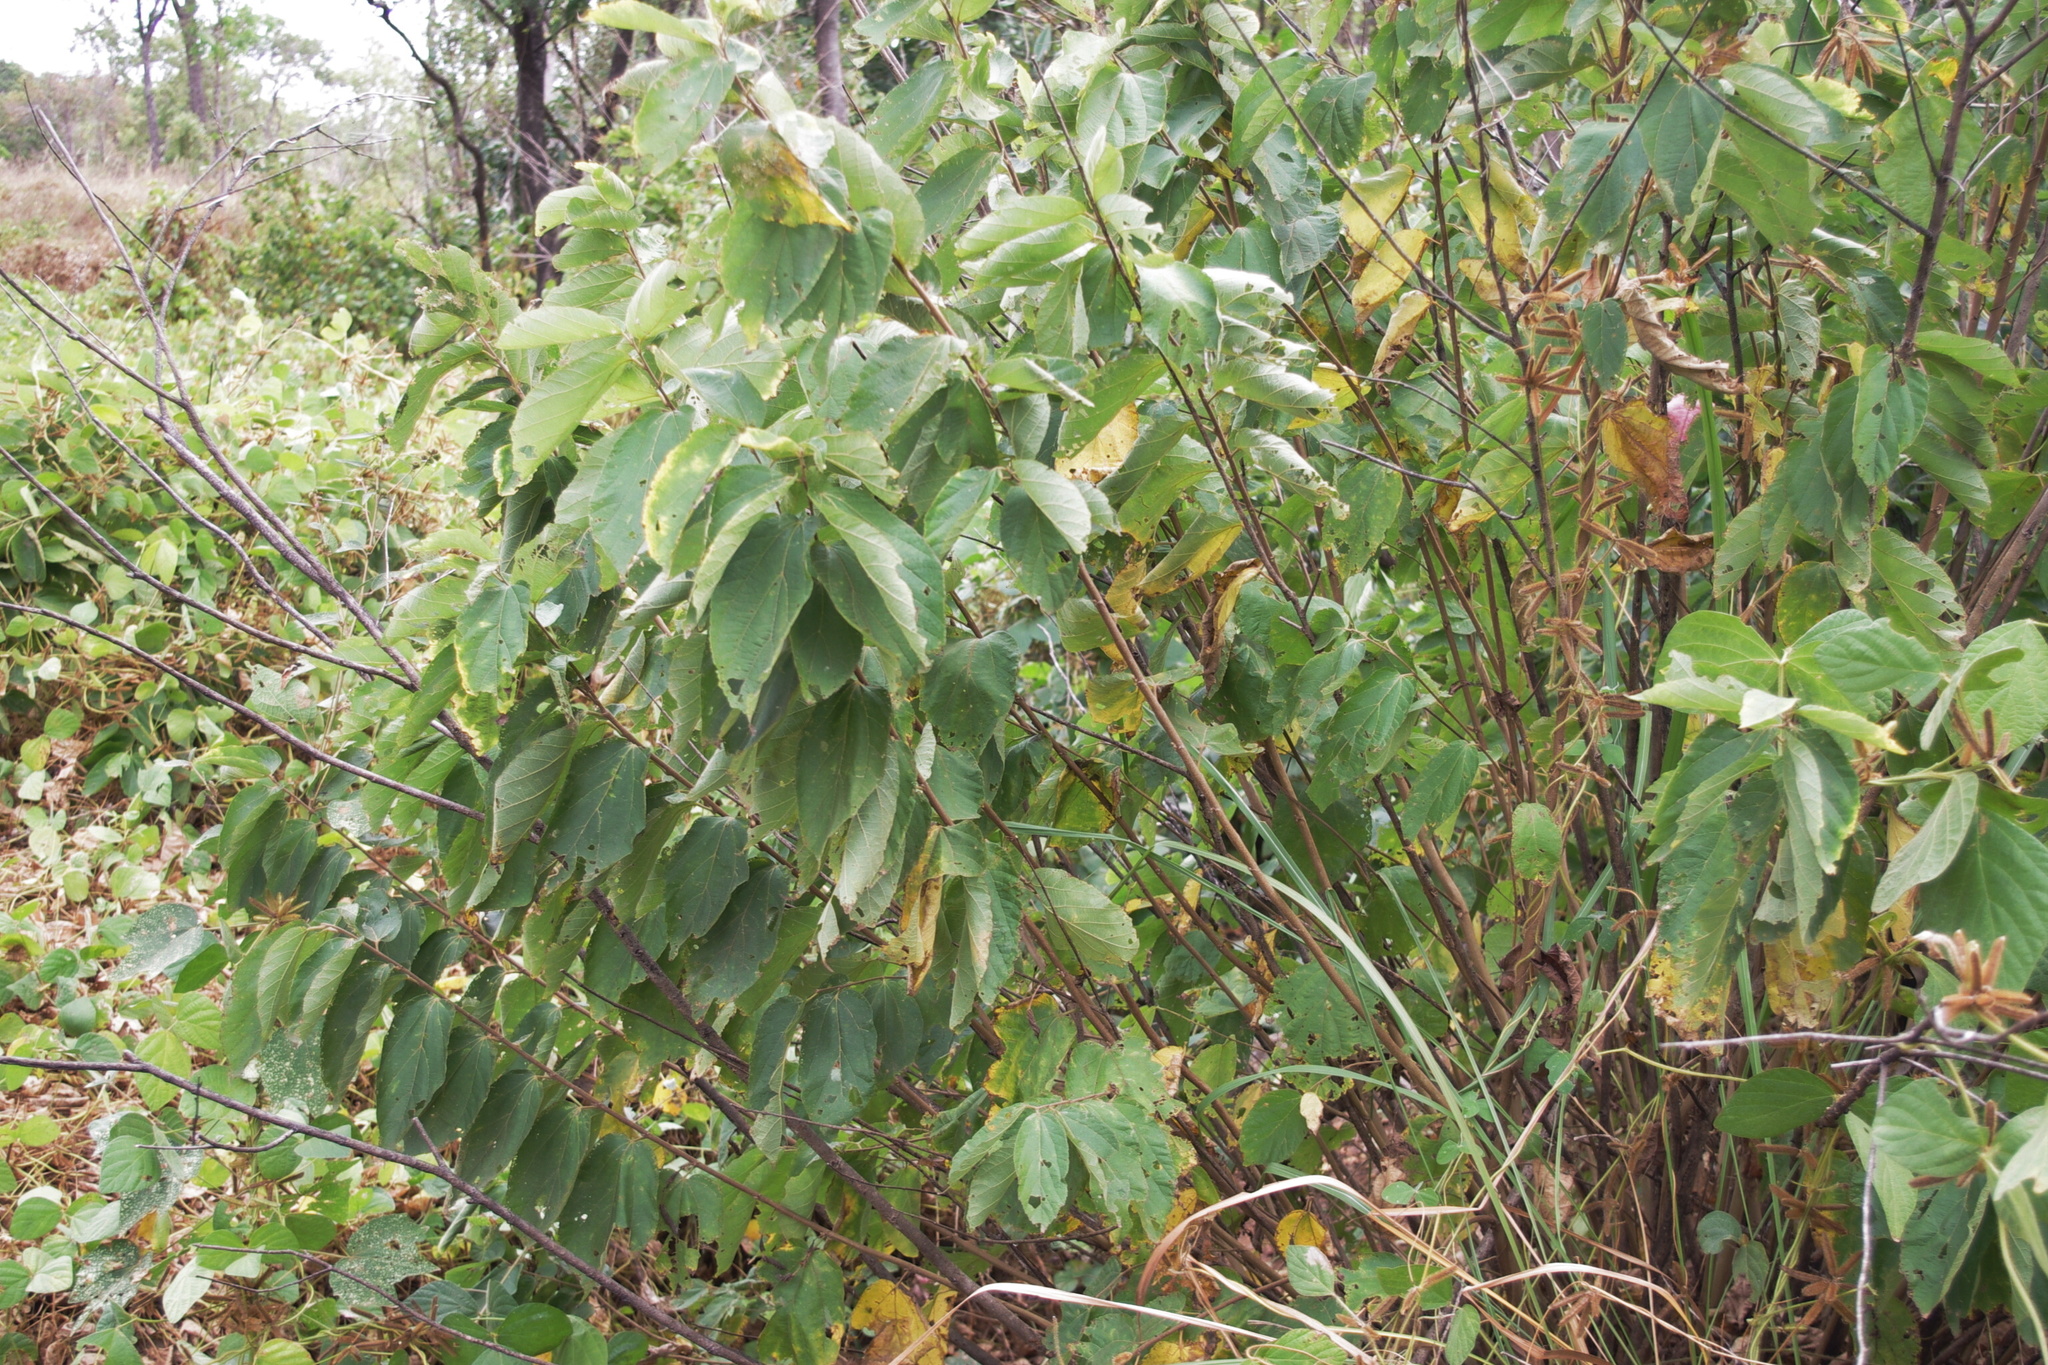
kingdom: Plantae
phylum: Tracheophyta
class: Magnoliopsida
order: Malvales
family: Malvaceae
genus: Helicteres
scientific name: Helicteres isora
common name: East indian screwtree
